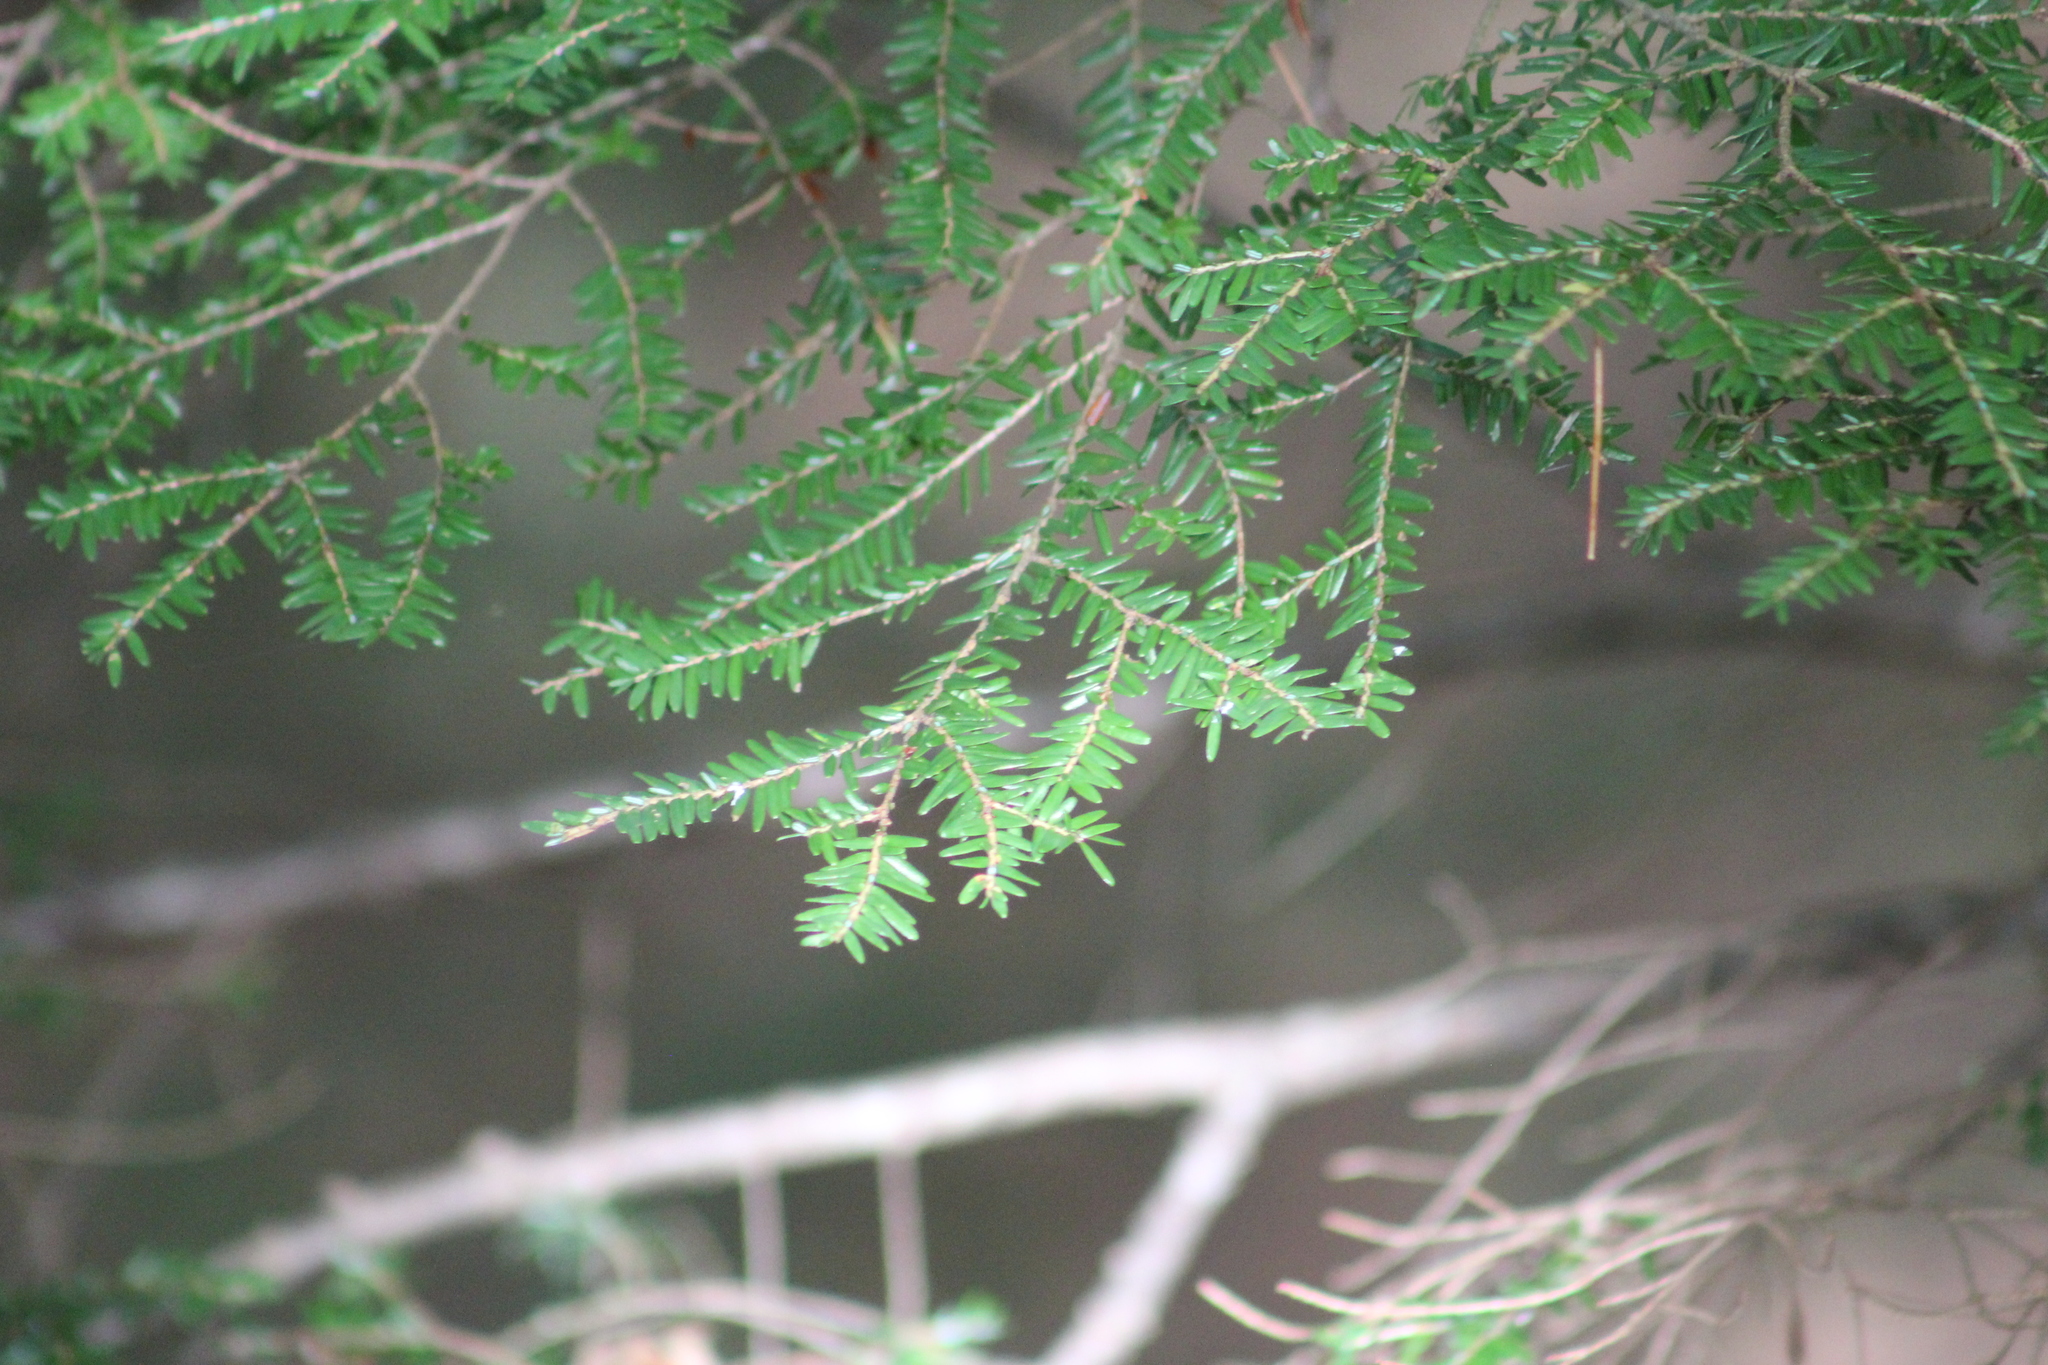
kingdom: Plantae
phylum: Tracheophyta
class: Pinopsida
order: Pinales
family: Pinaceae
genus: Tsuga
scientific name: Tsuga canadensis
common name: Eastern hemlock
